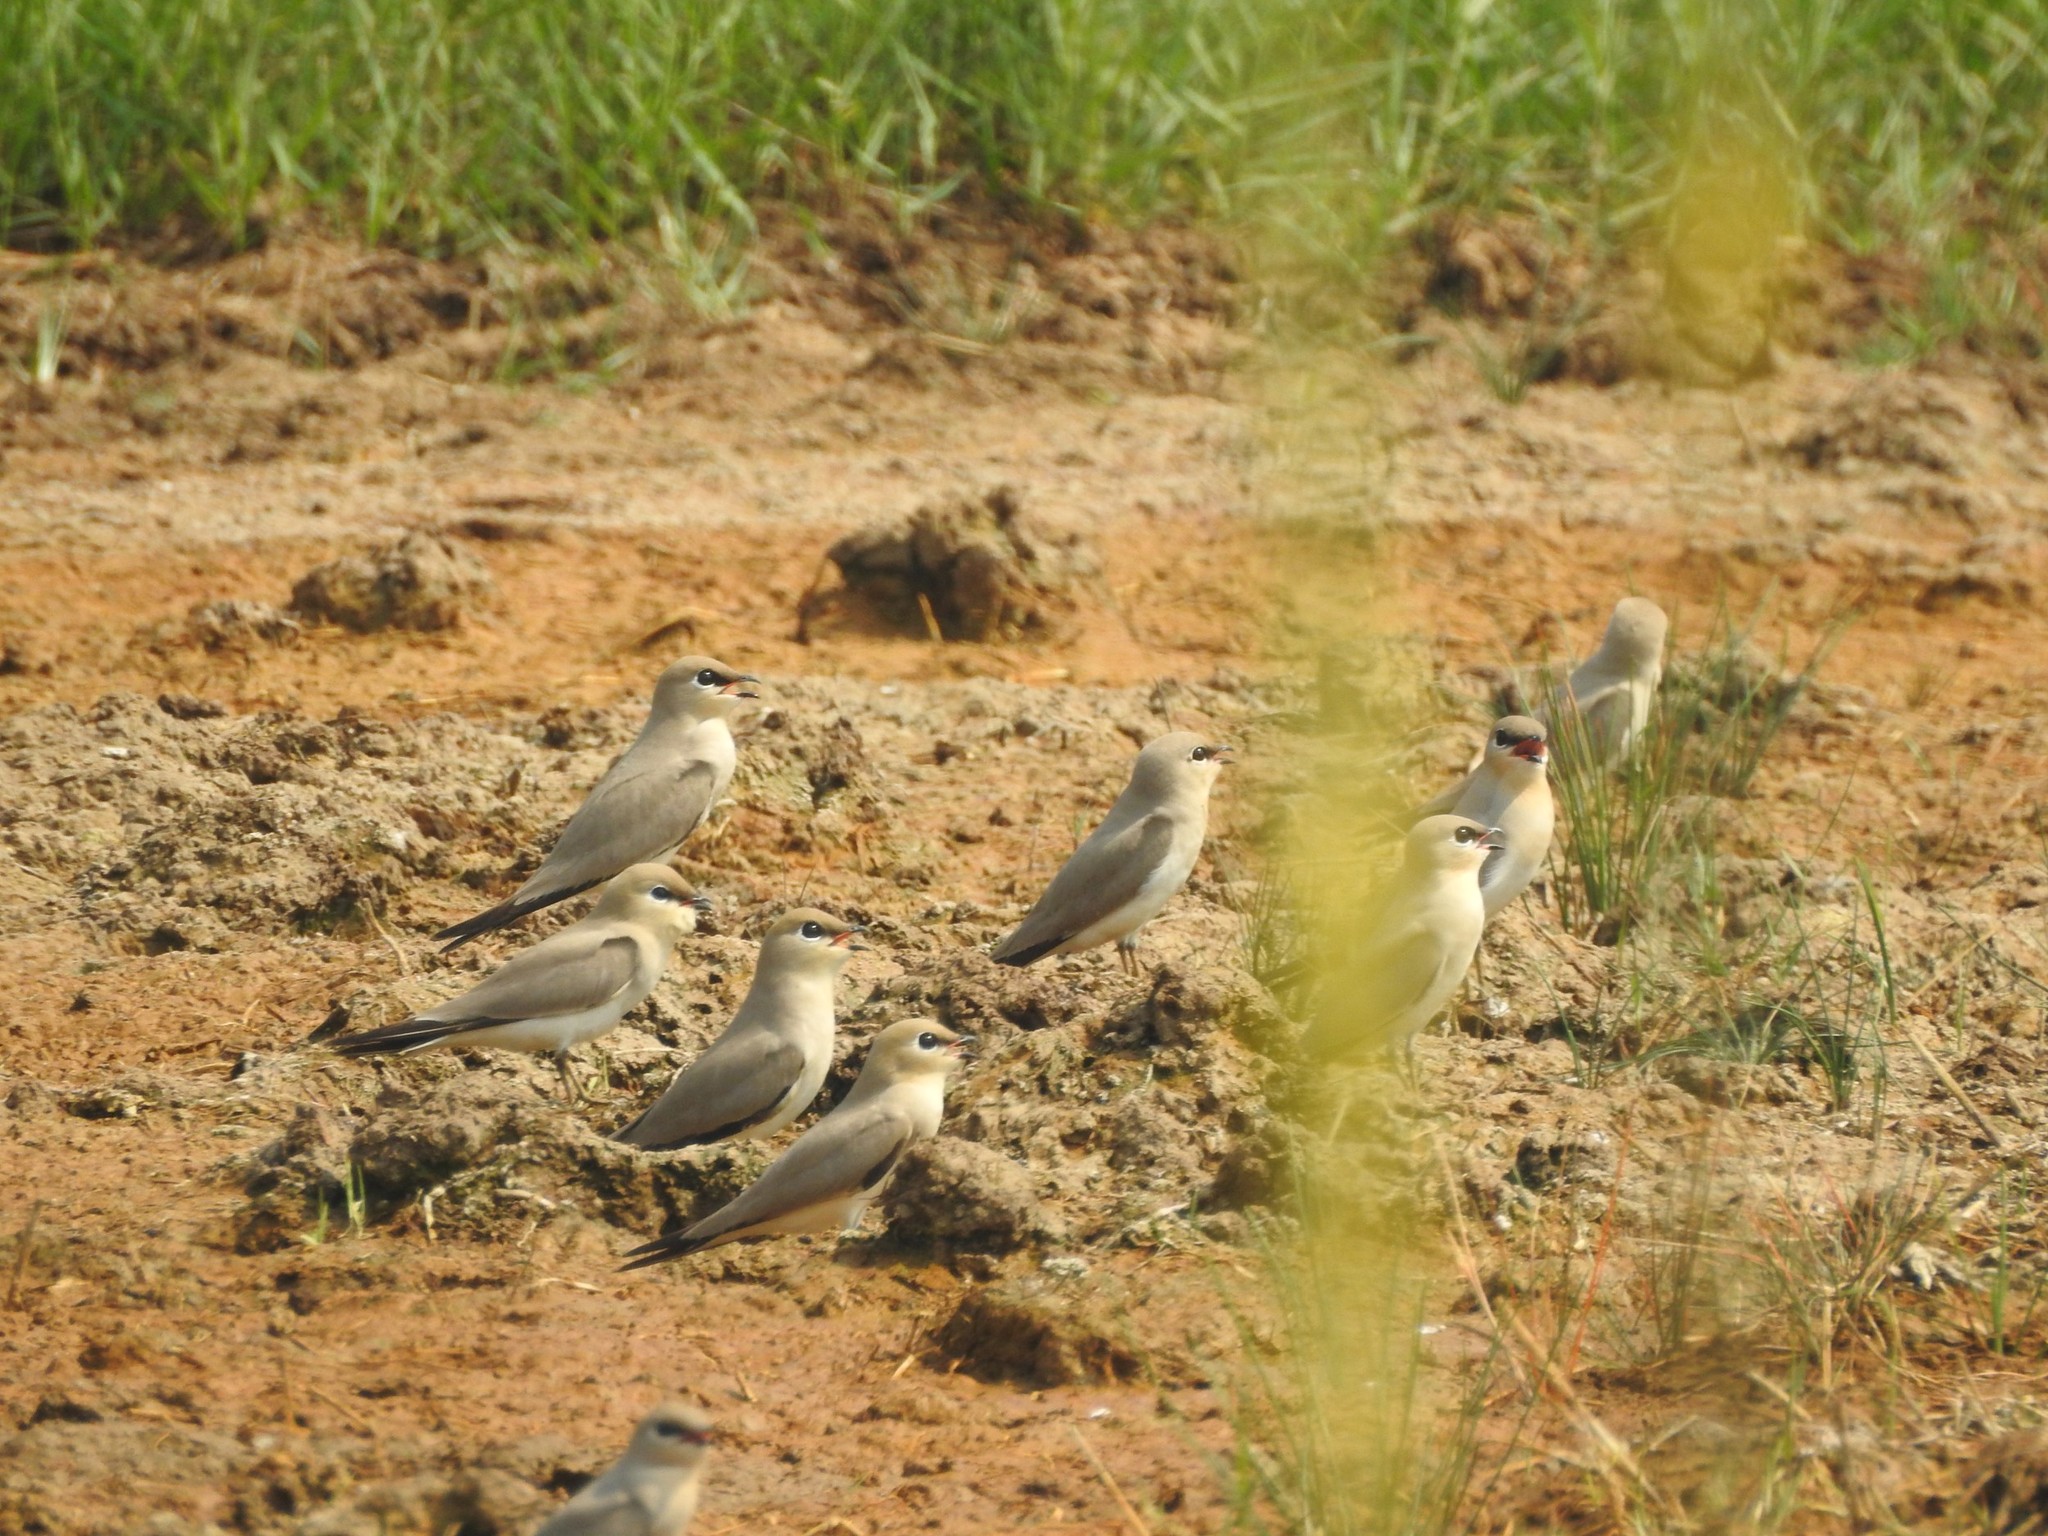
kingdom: Animalia
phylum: Chordata
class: Aves
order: Charadriiformes
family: Glareolidae
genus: Glareola
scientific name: Glareola lactea
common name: Small pratincole
